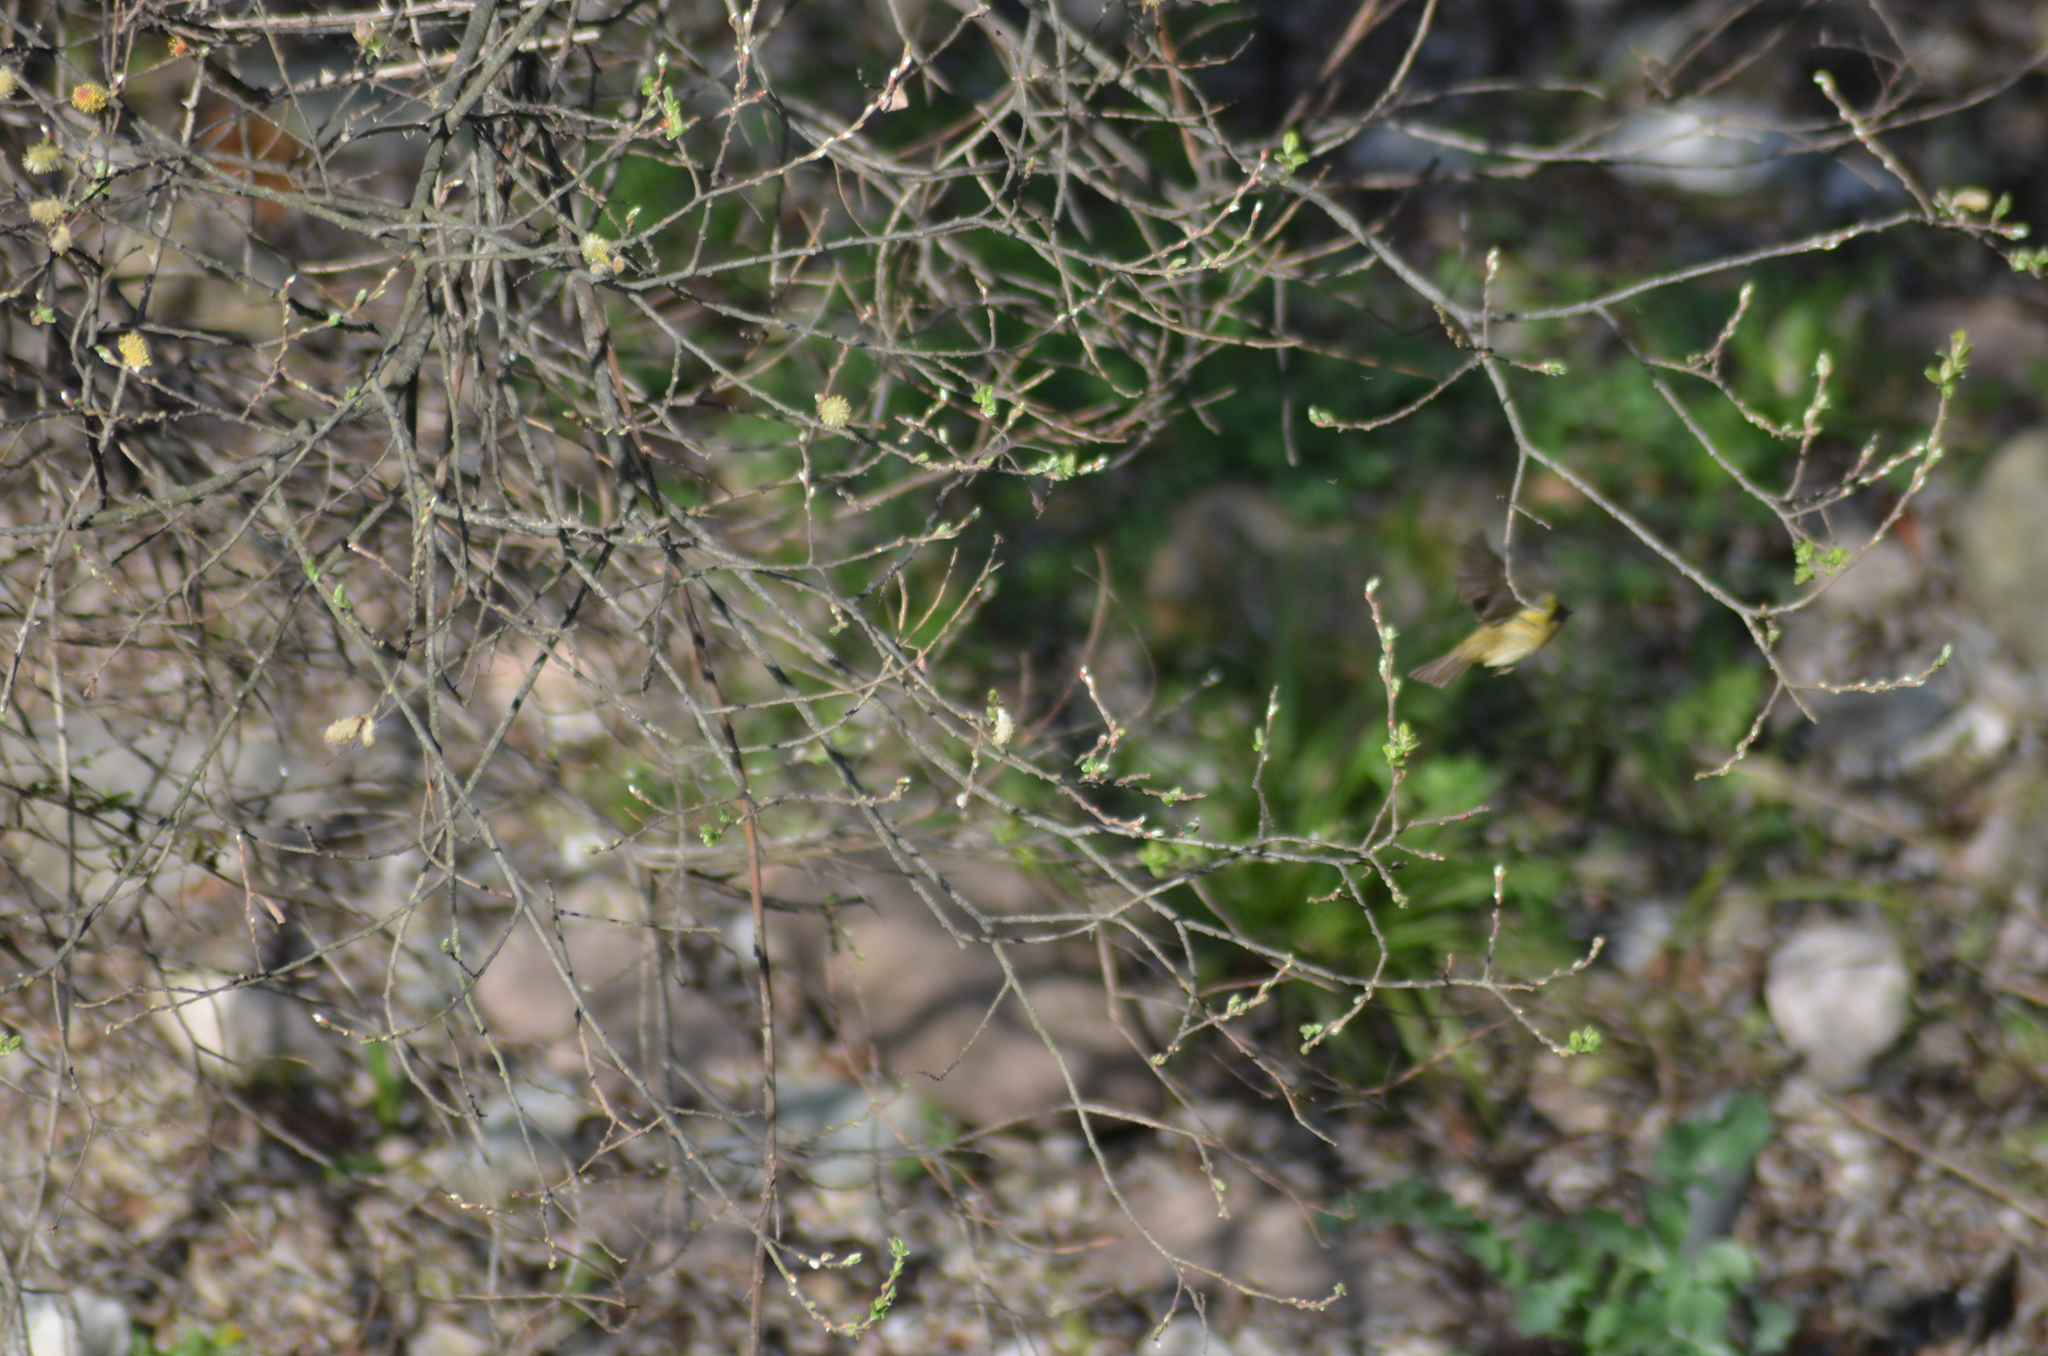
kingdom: Animalia
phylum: Chordata
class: Aves
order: Passeriformes
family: Phylloscopidae
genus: Phylloscopus
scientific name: Phylloscopus collybita
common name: Common chiffchaff
